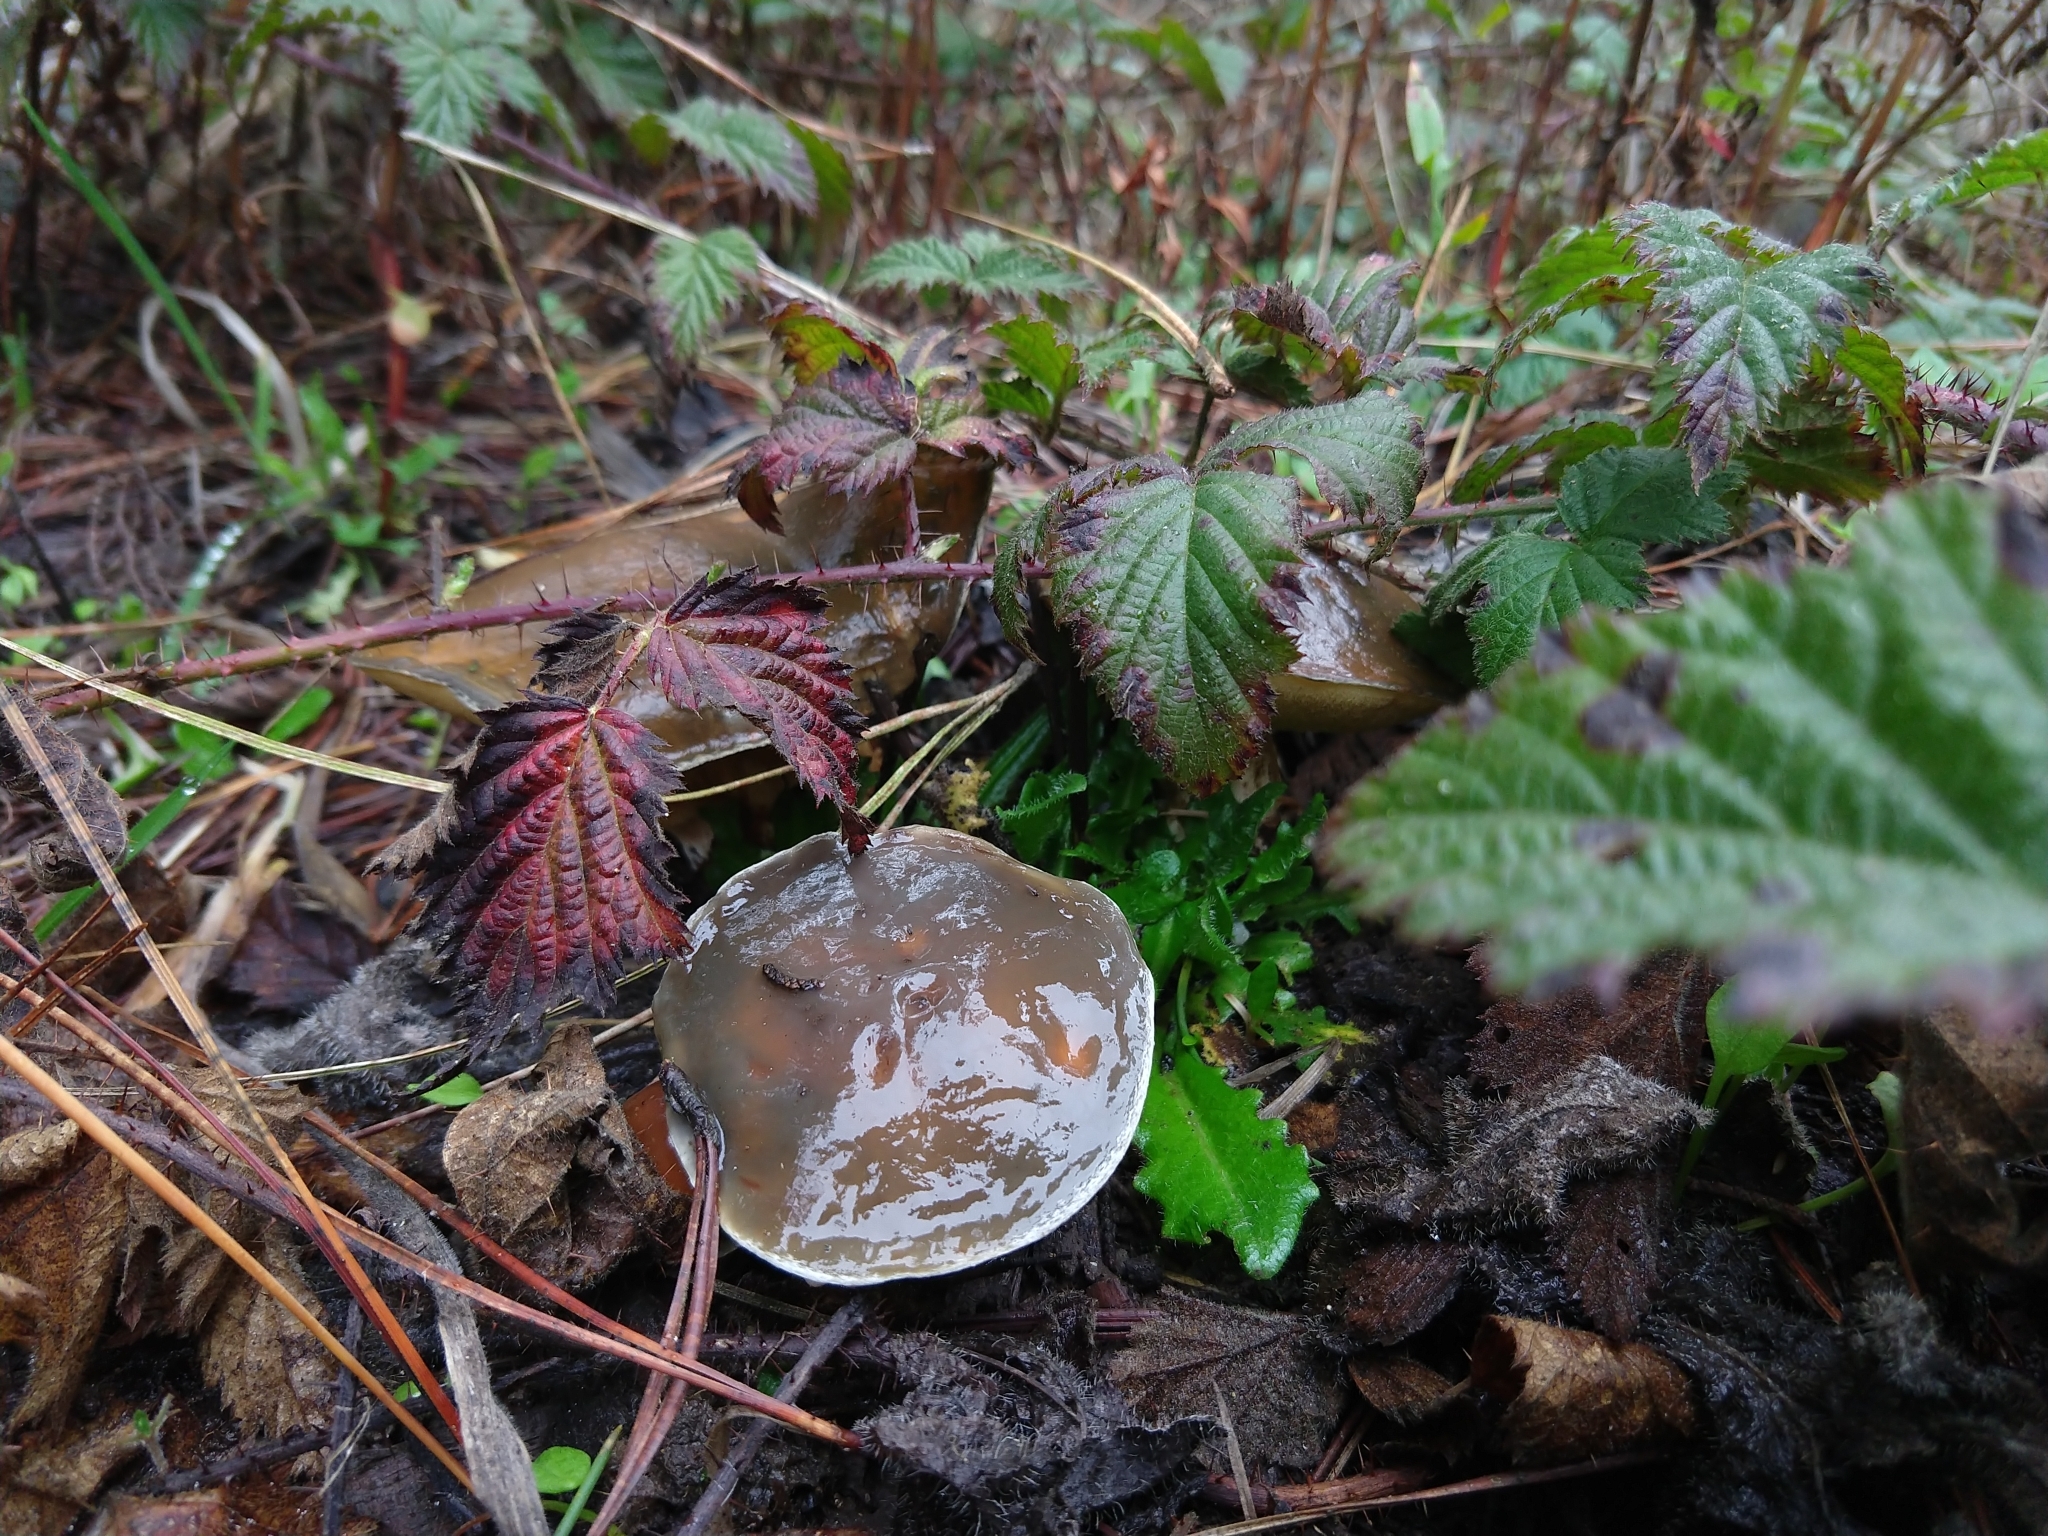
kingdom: Fungi
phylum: Basidiomycota
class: Agaricomycetes
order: Boletales
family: Suillaceae
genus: Suillus
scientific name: Suillus pungens
